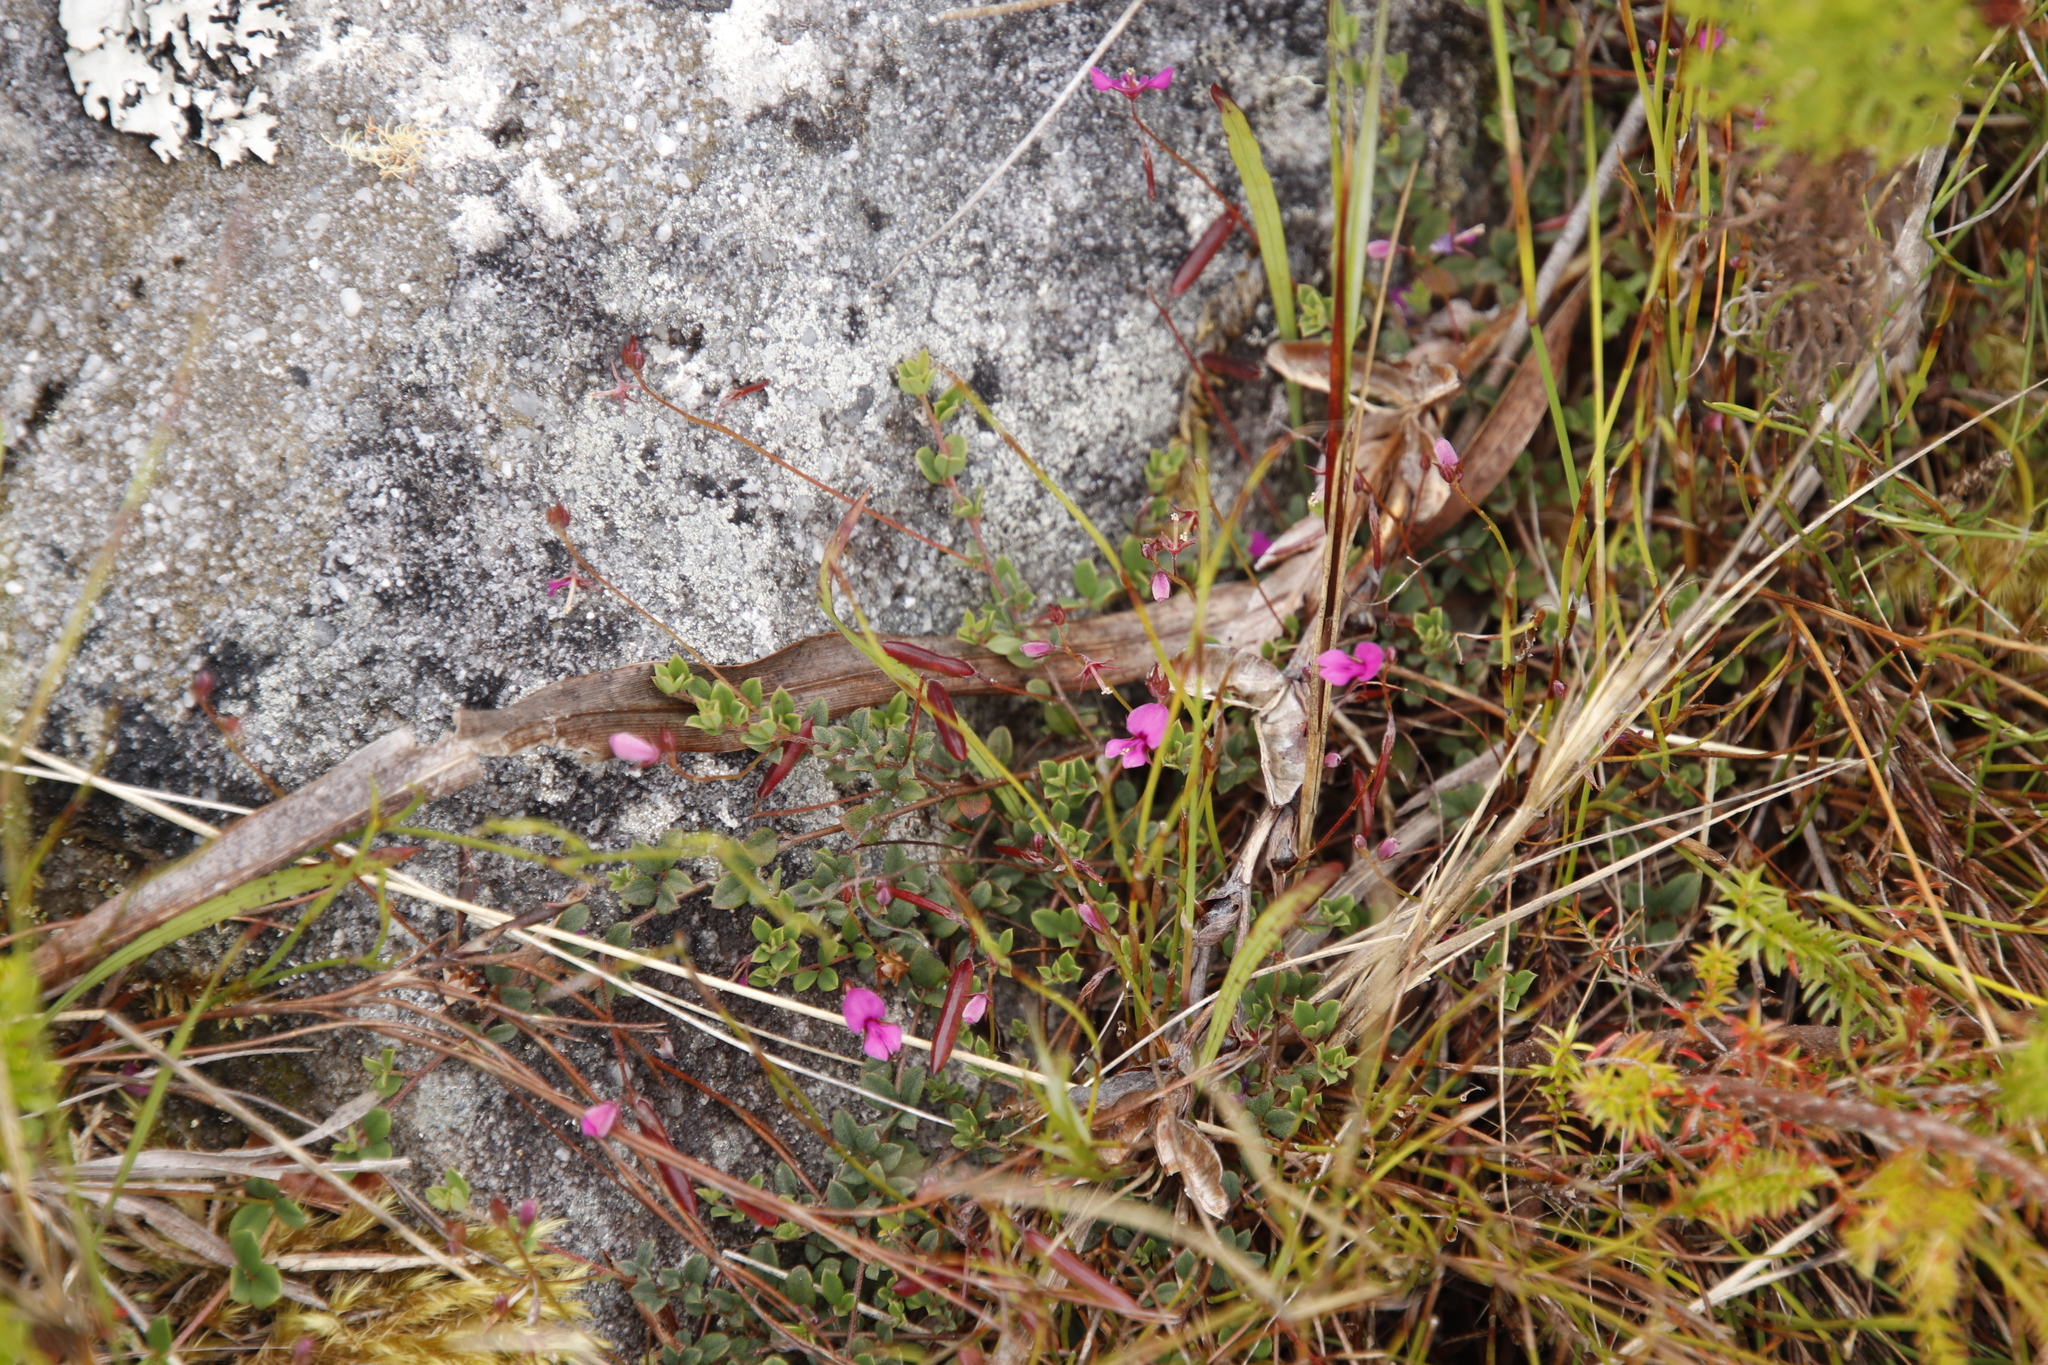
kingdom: Plantae
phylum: Tracheophyta
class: Magnoliopsida
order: Fabales
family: Fabaceae
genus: Indigofera
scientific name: Indigofera sarmentosa
